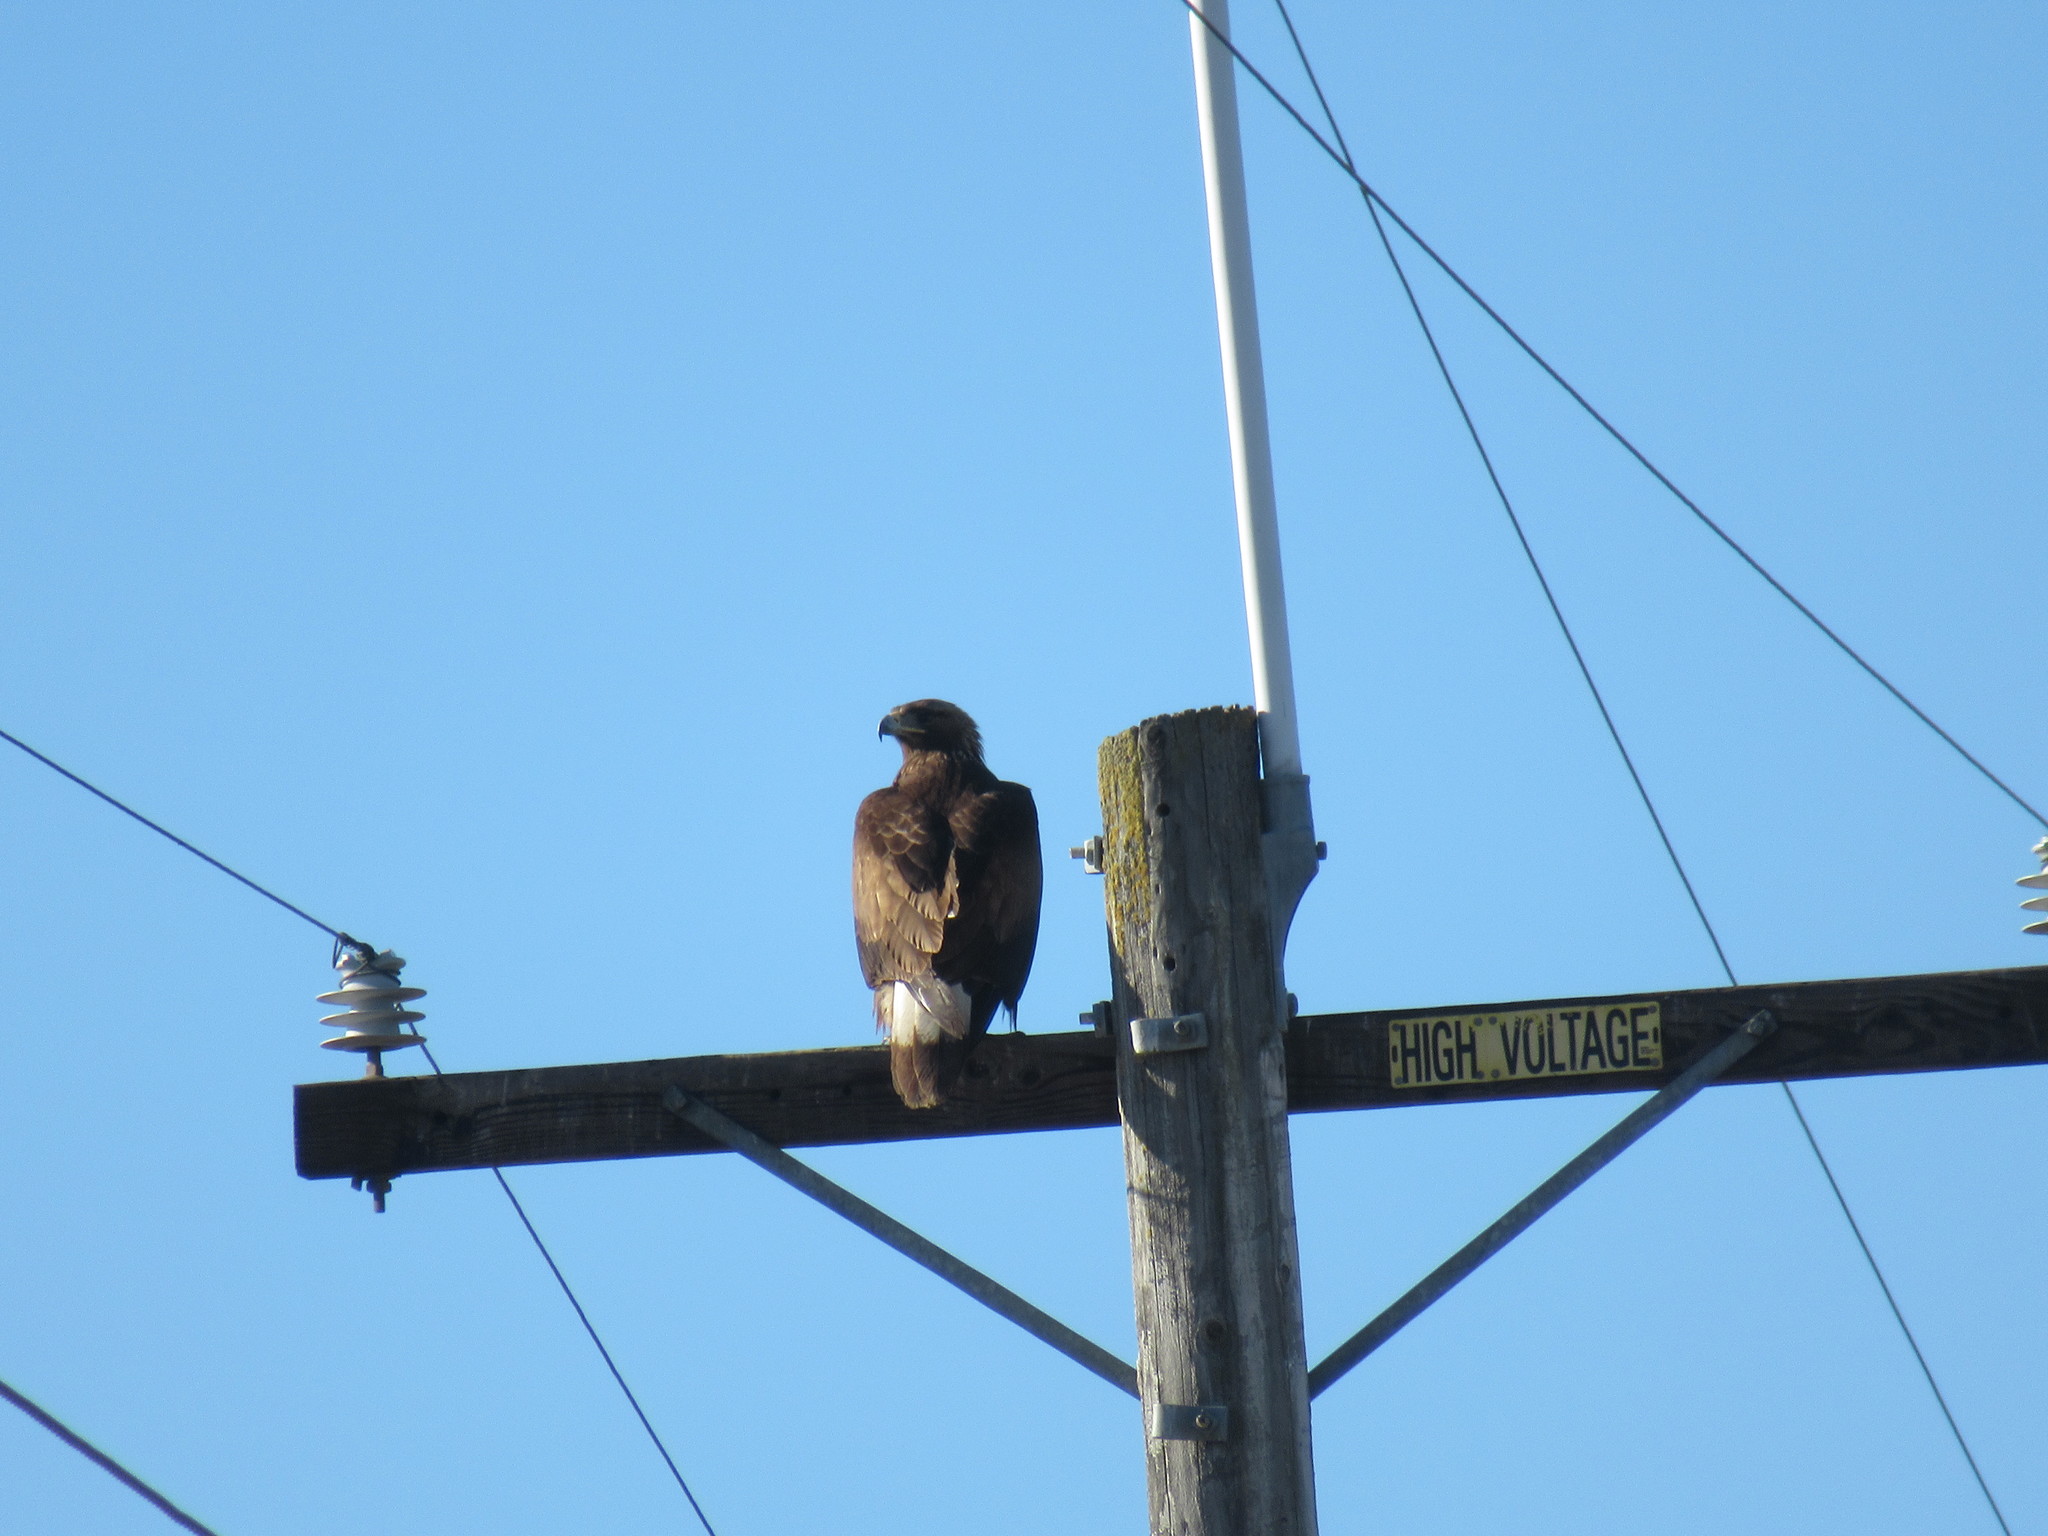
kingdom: Animalia
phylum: Chordata
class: Aves
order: Accipitriformes
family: Accipitridae
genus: Aquila
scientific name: Aquila chrysaetos
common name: Golden eagle
